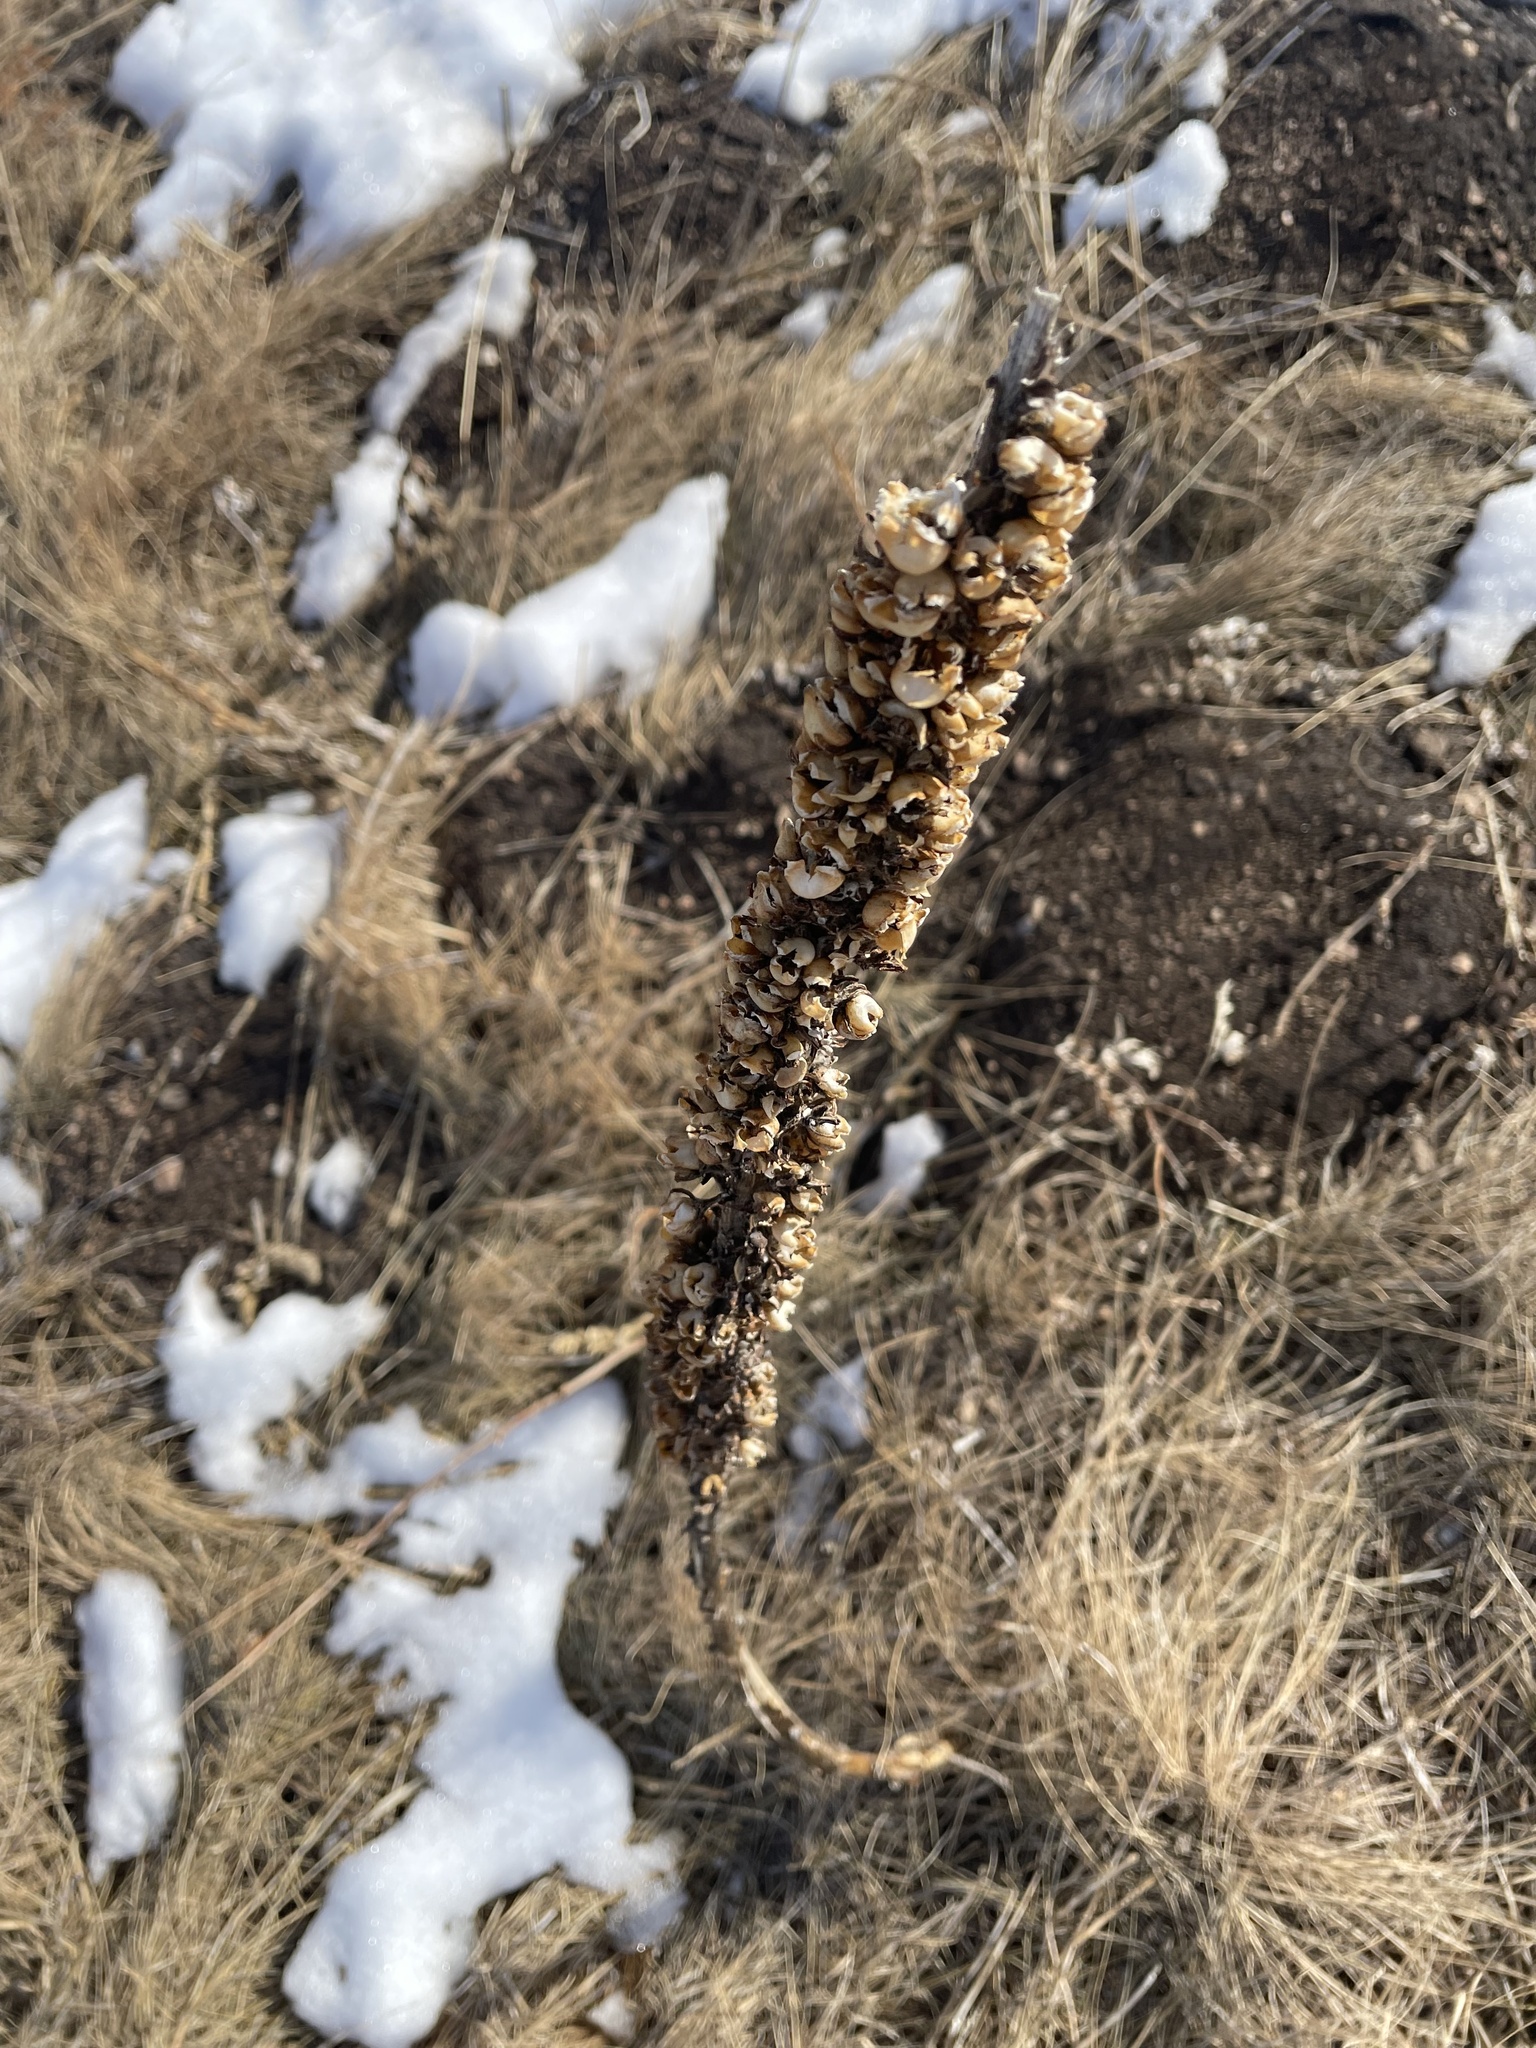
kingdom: Plantae
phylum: Tracheophyta
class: Magnoliopsida
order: Lamiales
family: Scrophulariaceae
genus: Verbascum
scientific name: Verbascum thapsus
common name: Common mullein
